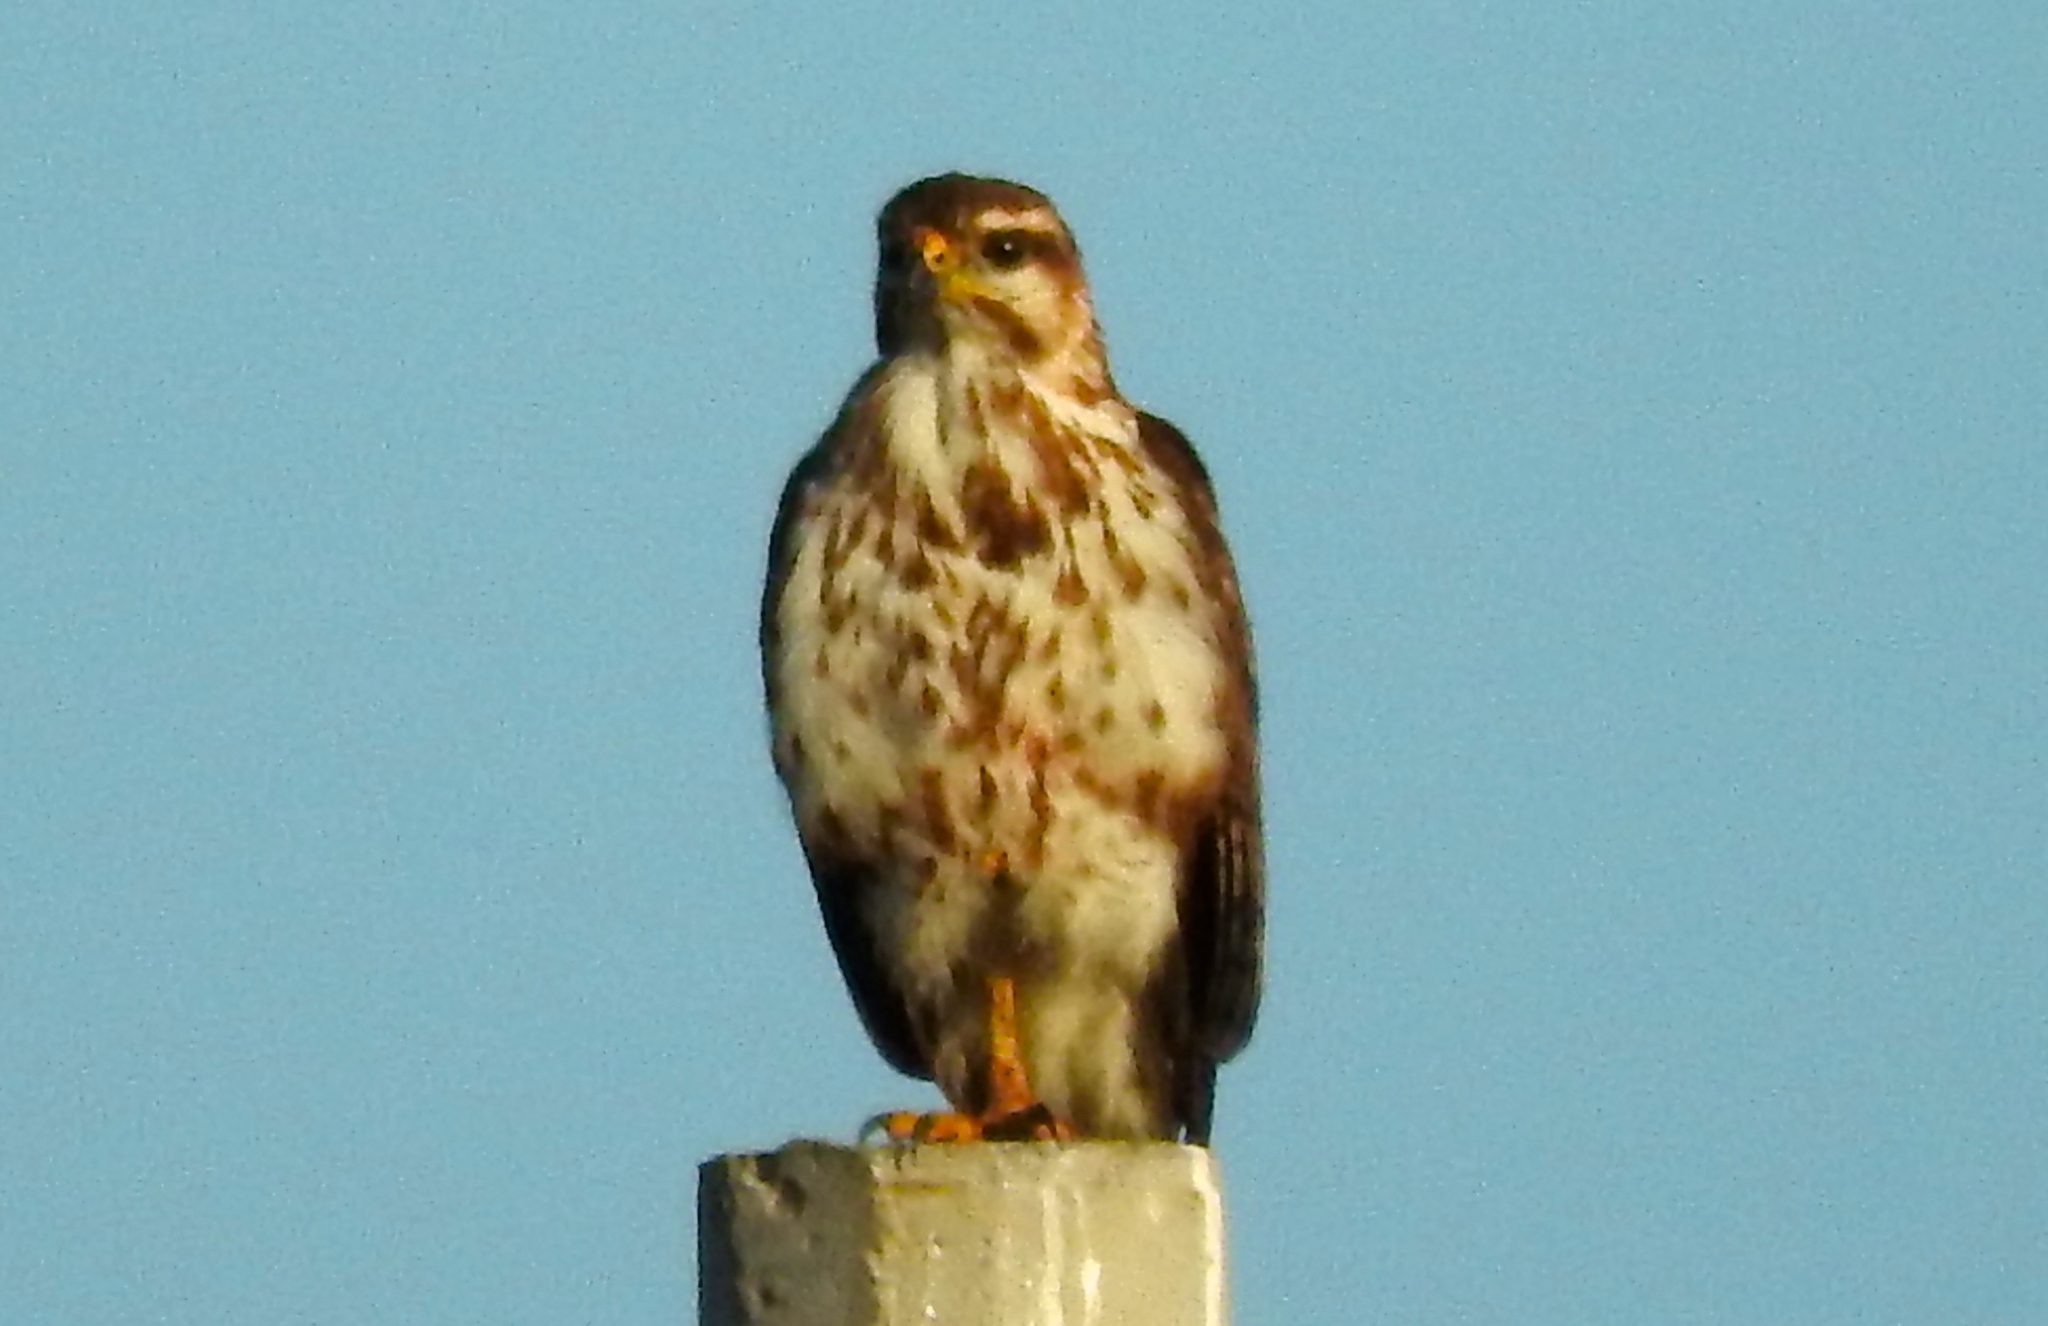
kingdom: Animalia
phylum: Chordata
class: Aves
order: Accipitriformes
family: Accipitridae
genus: Buteo
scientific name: Buteo nitidus
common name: Grey-lined hawk
